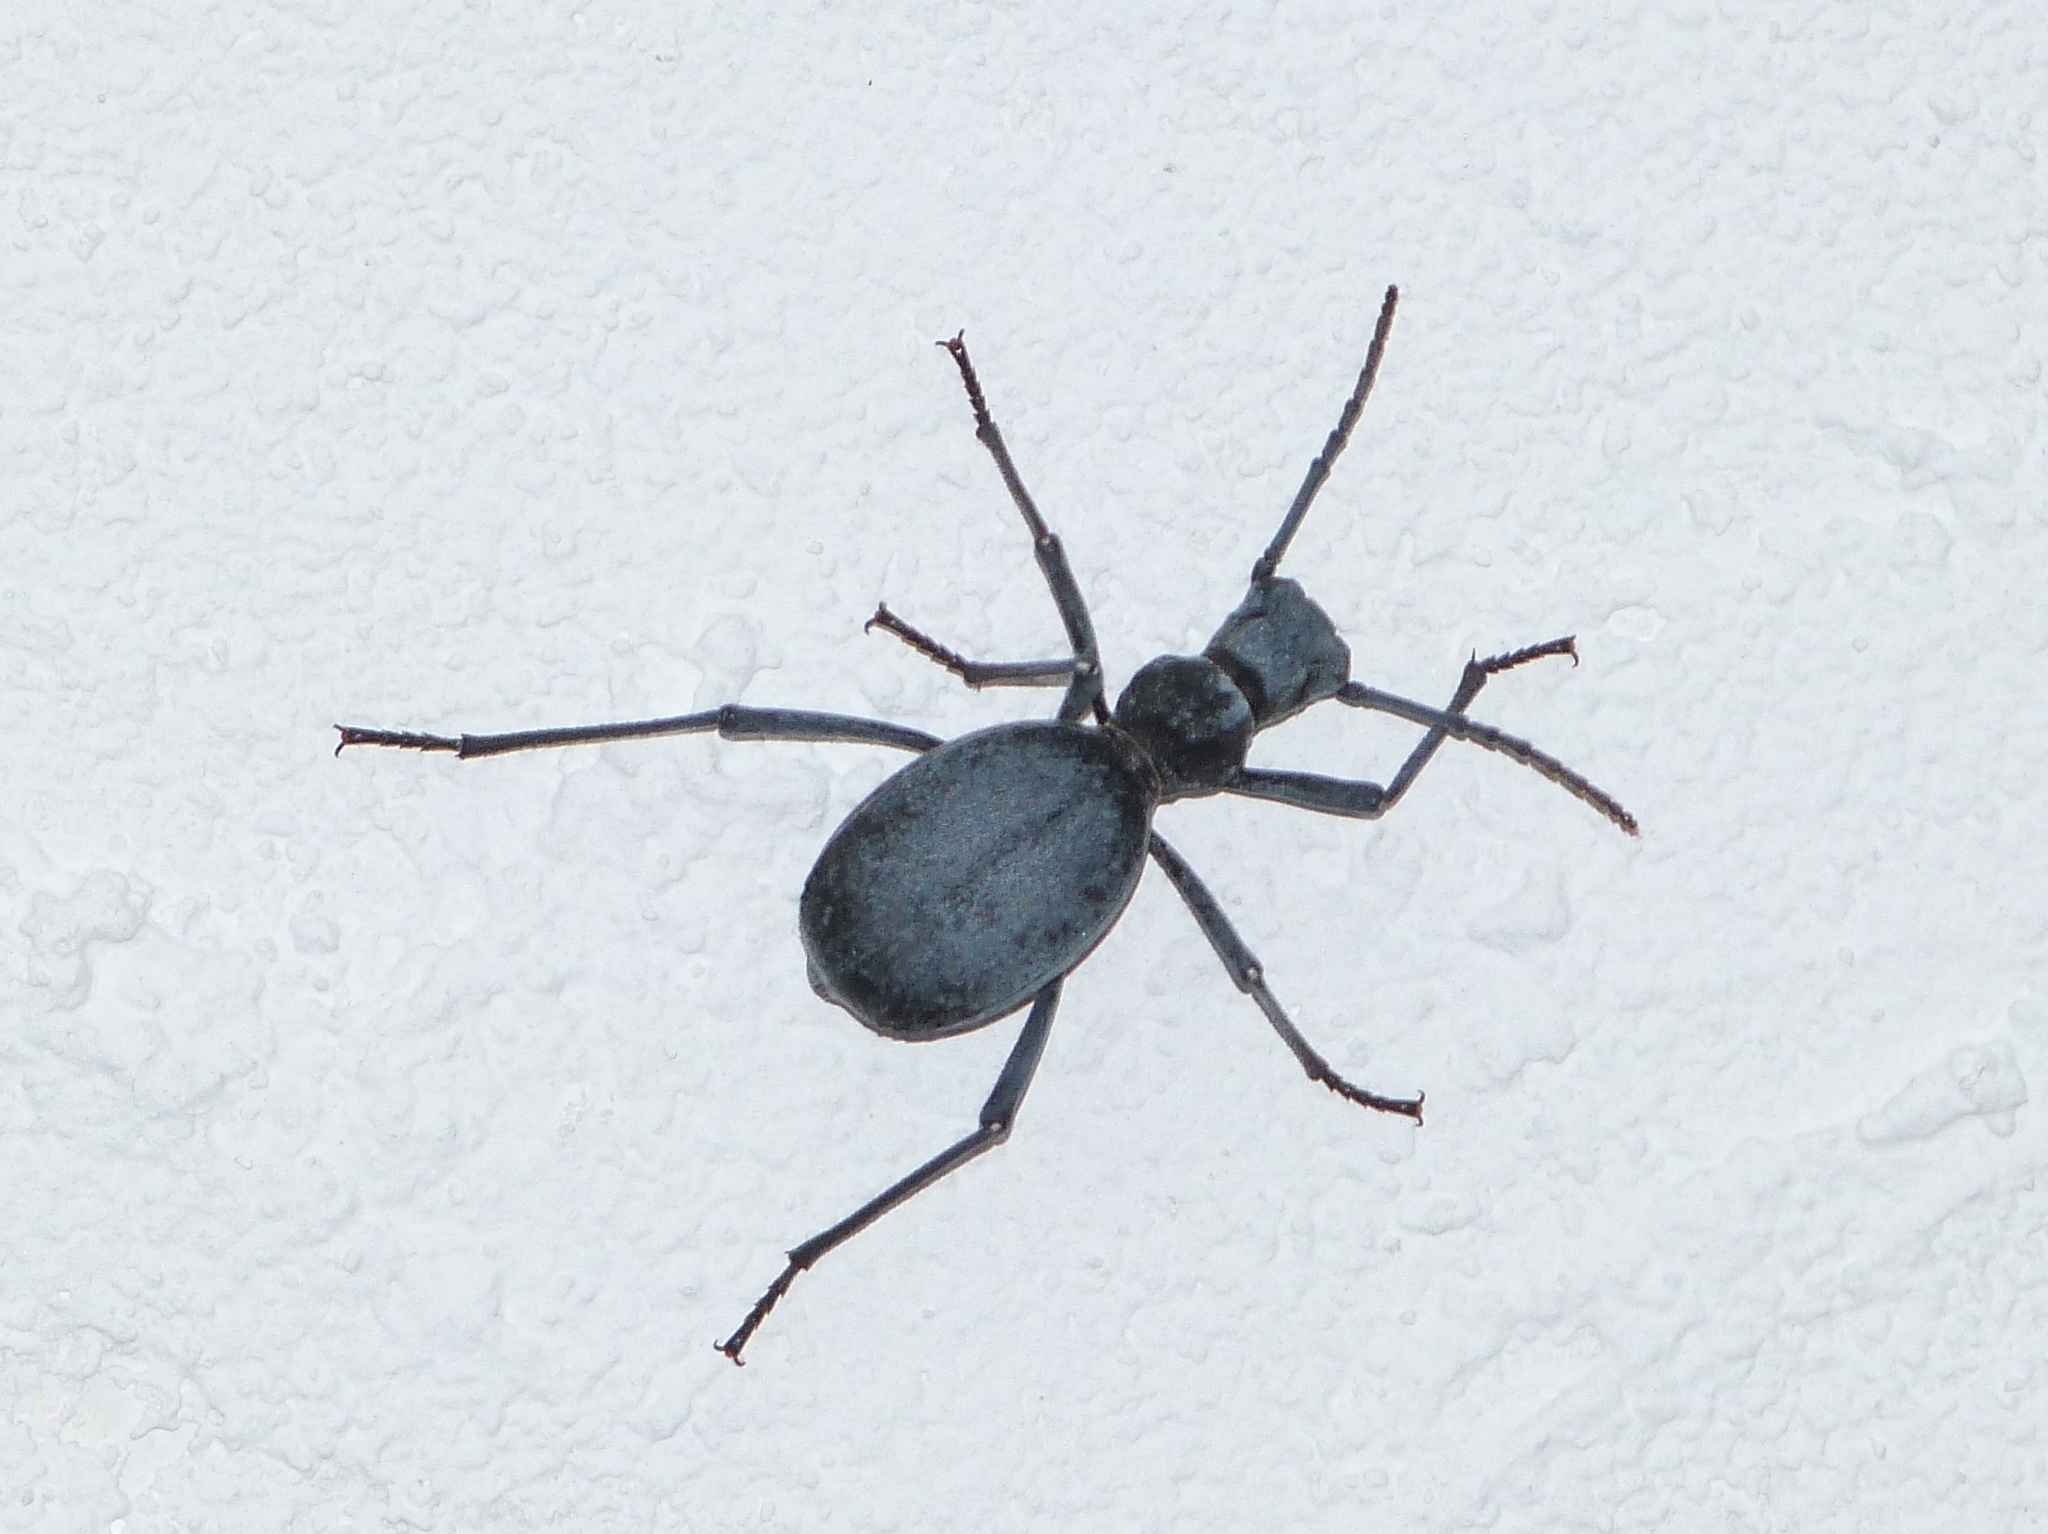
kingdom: Animalia
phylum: Arthropoda
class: Insecta
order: Coleoptera
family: Tenebrionidae
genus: Leptoderis
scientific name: Leptoderis solieri
